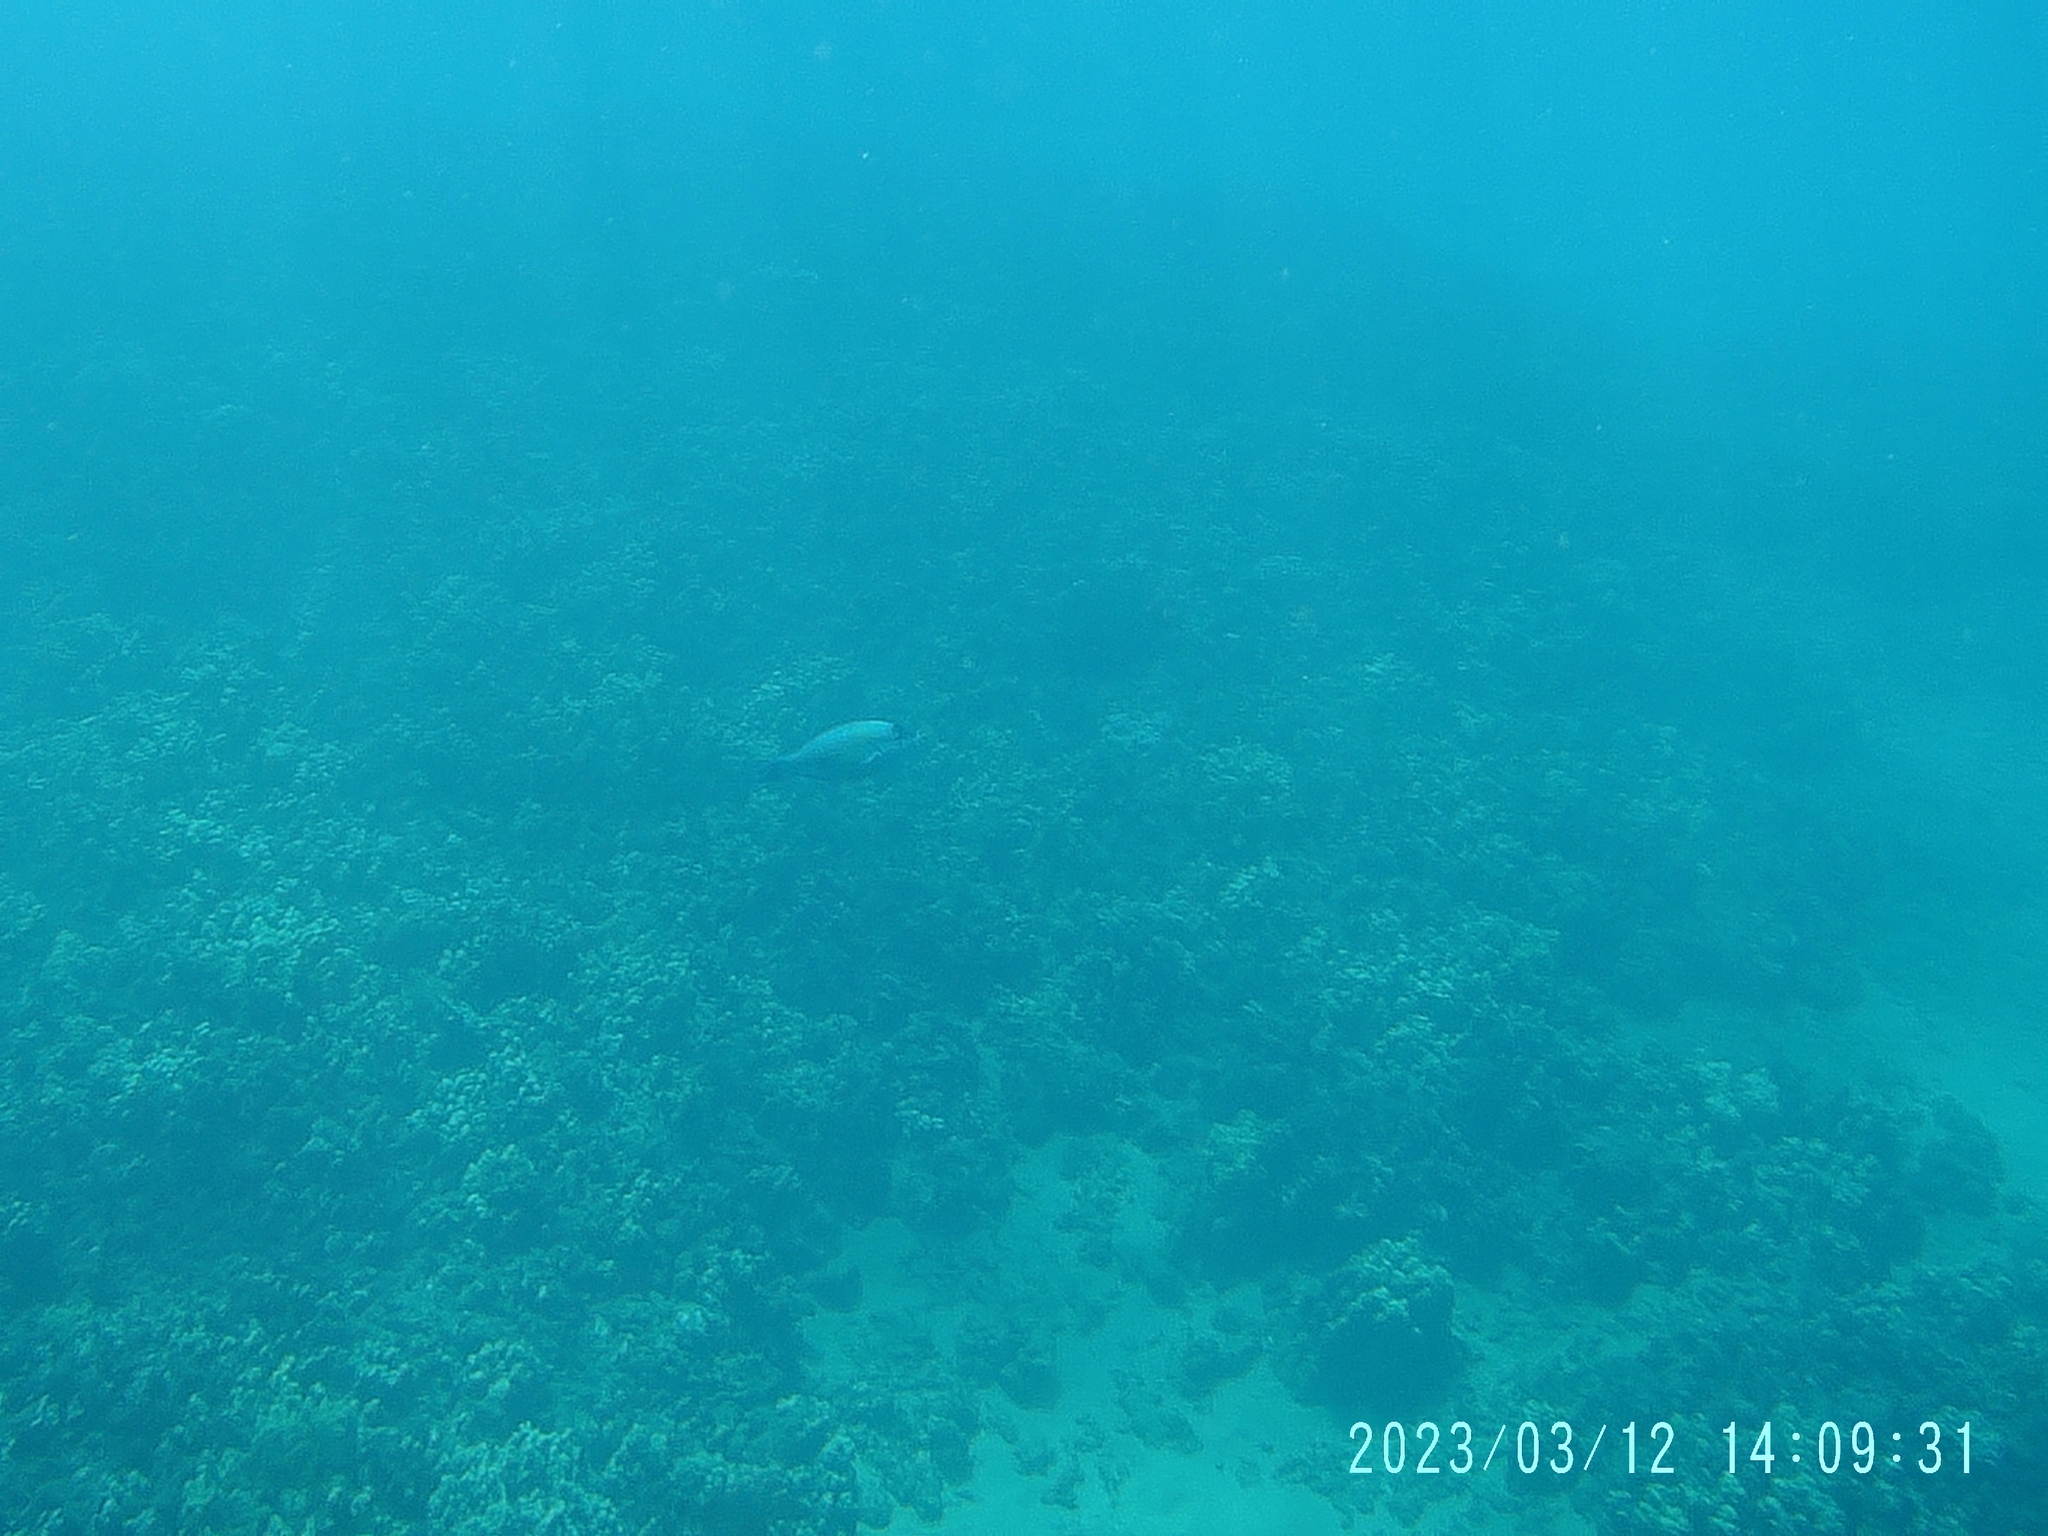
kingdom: Animalia
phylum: Chordata
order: Perciformes
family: Scaridae
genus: Scarus
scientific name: Scarus psittacus
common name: Palenose parrotfish
